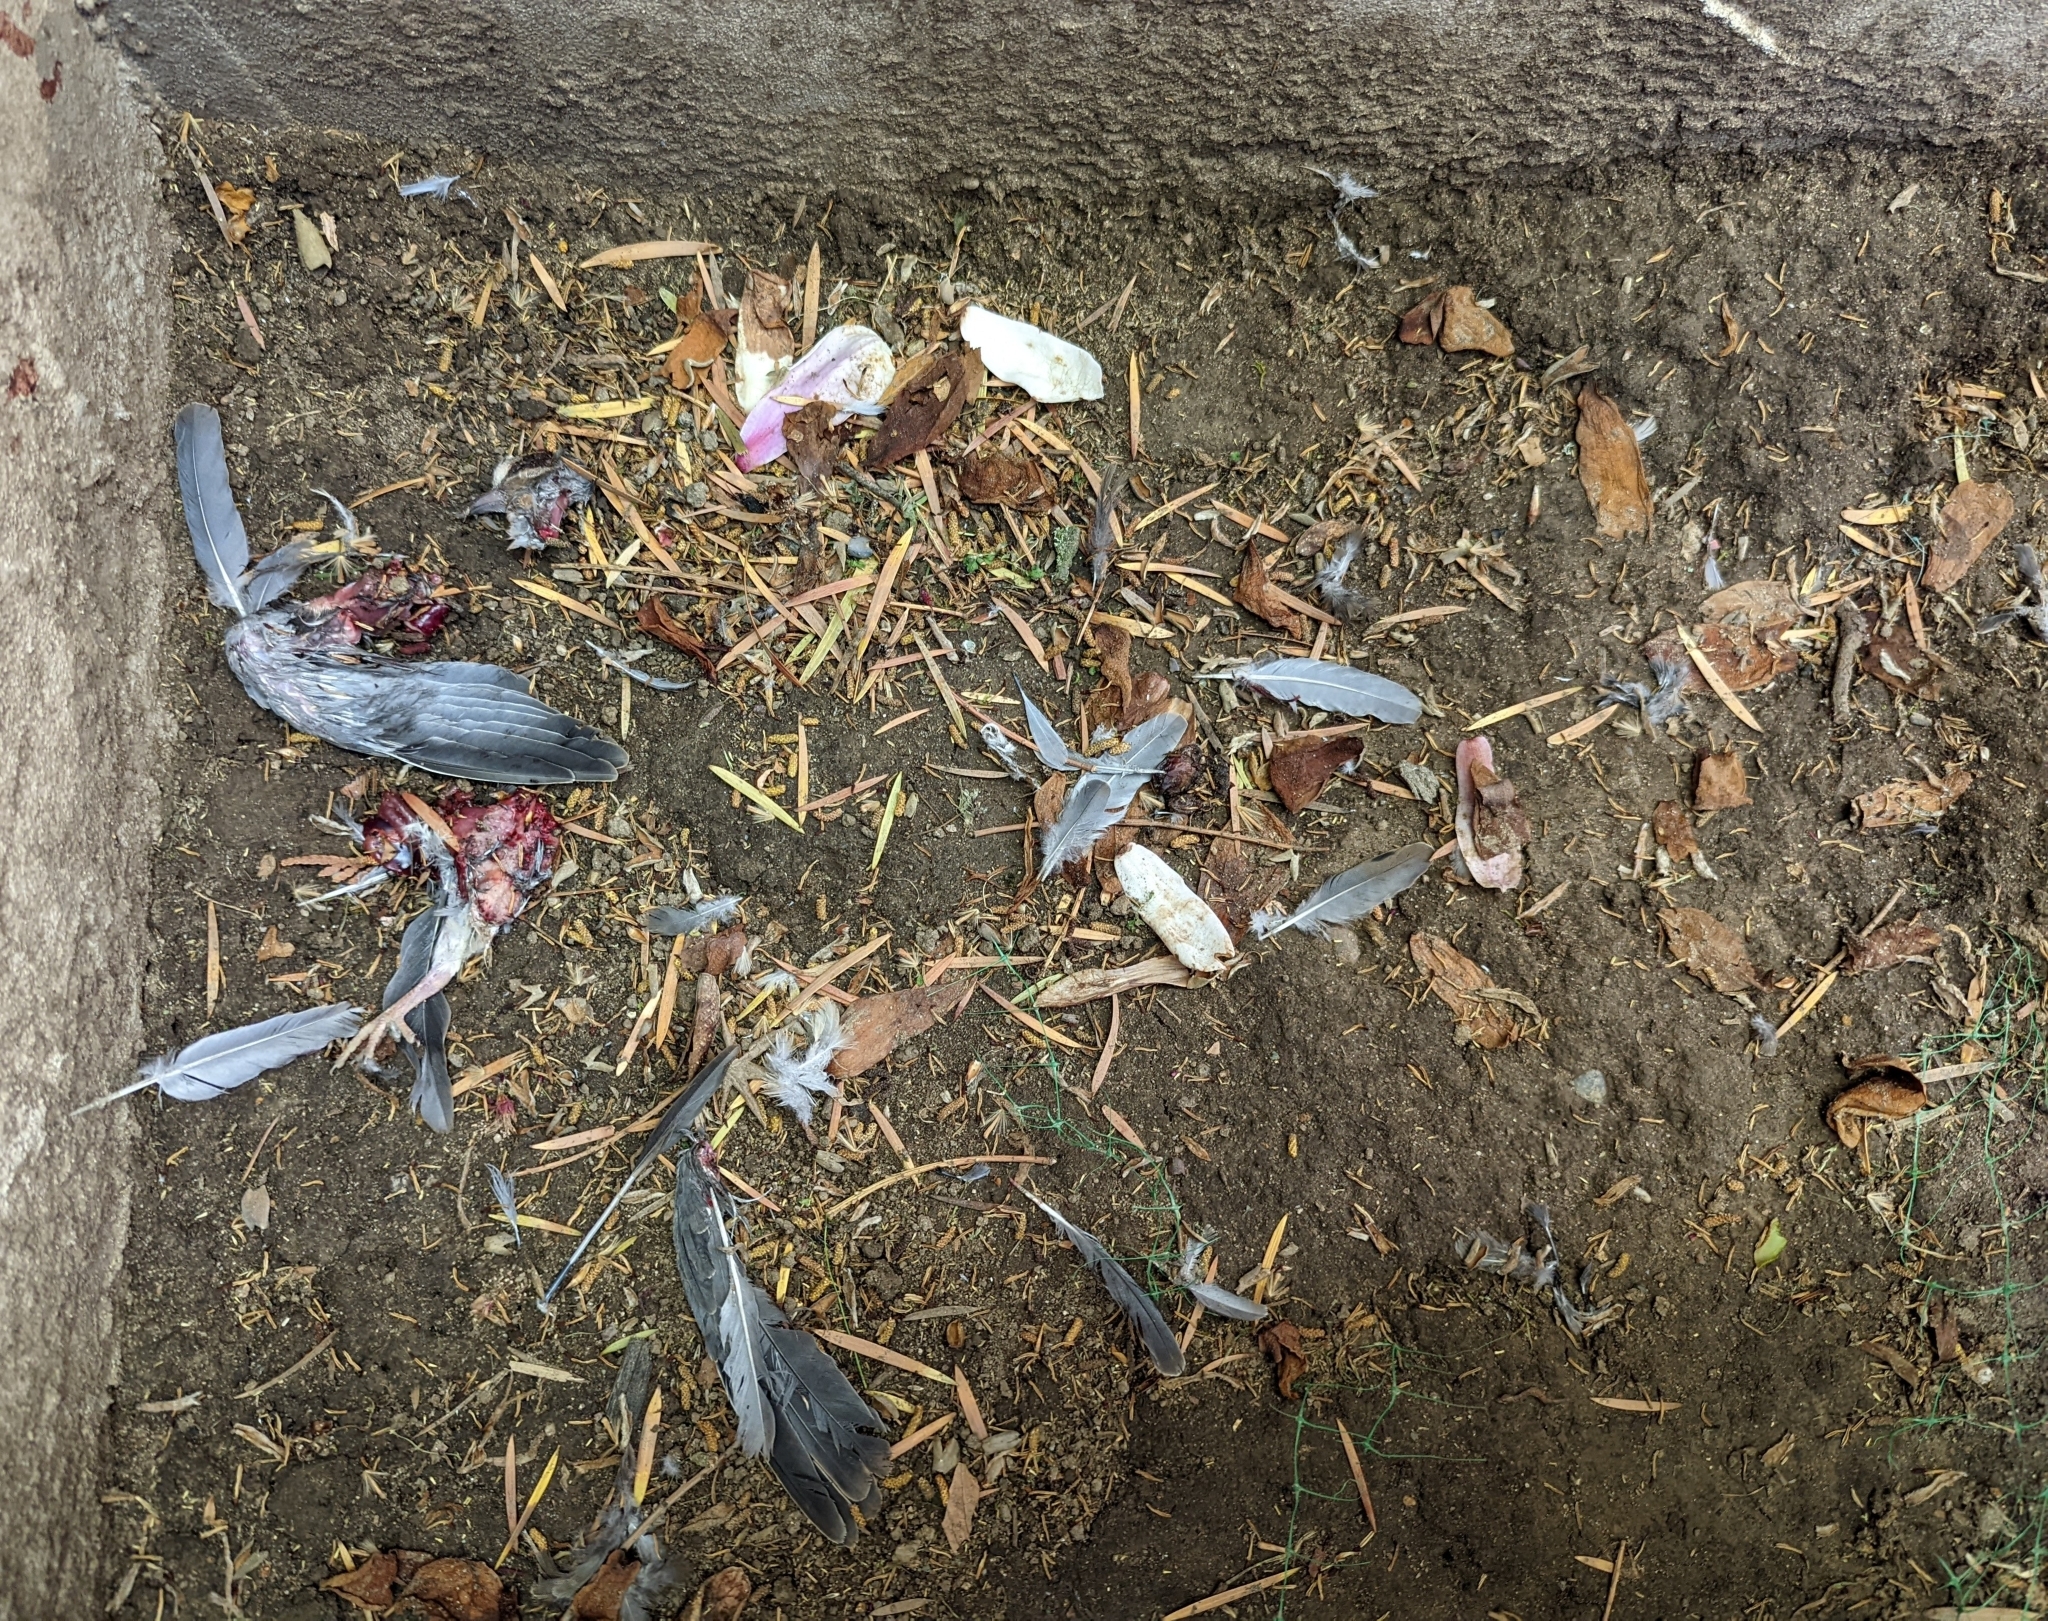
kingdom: Animalia
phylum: Chordata
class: Aves
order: Columbiformes
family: Columbidae
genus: Zenaida
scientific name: Zenaida macroura
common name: Mourning dove
